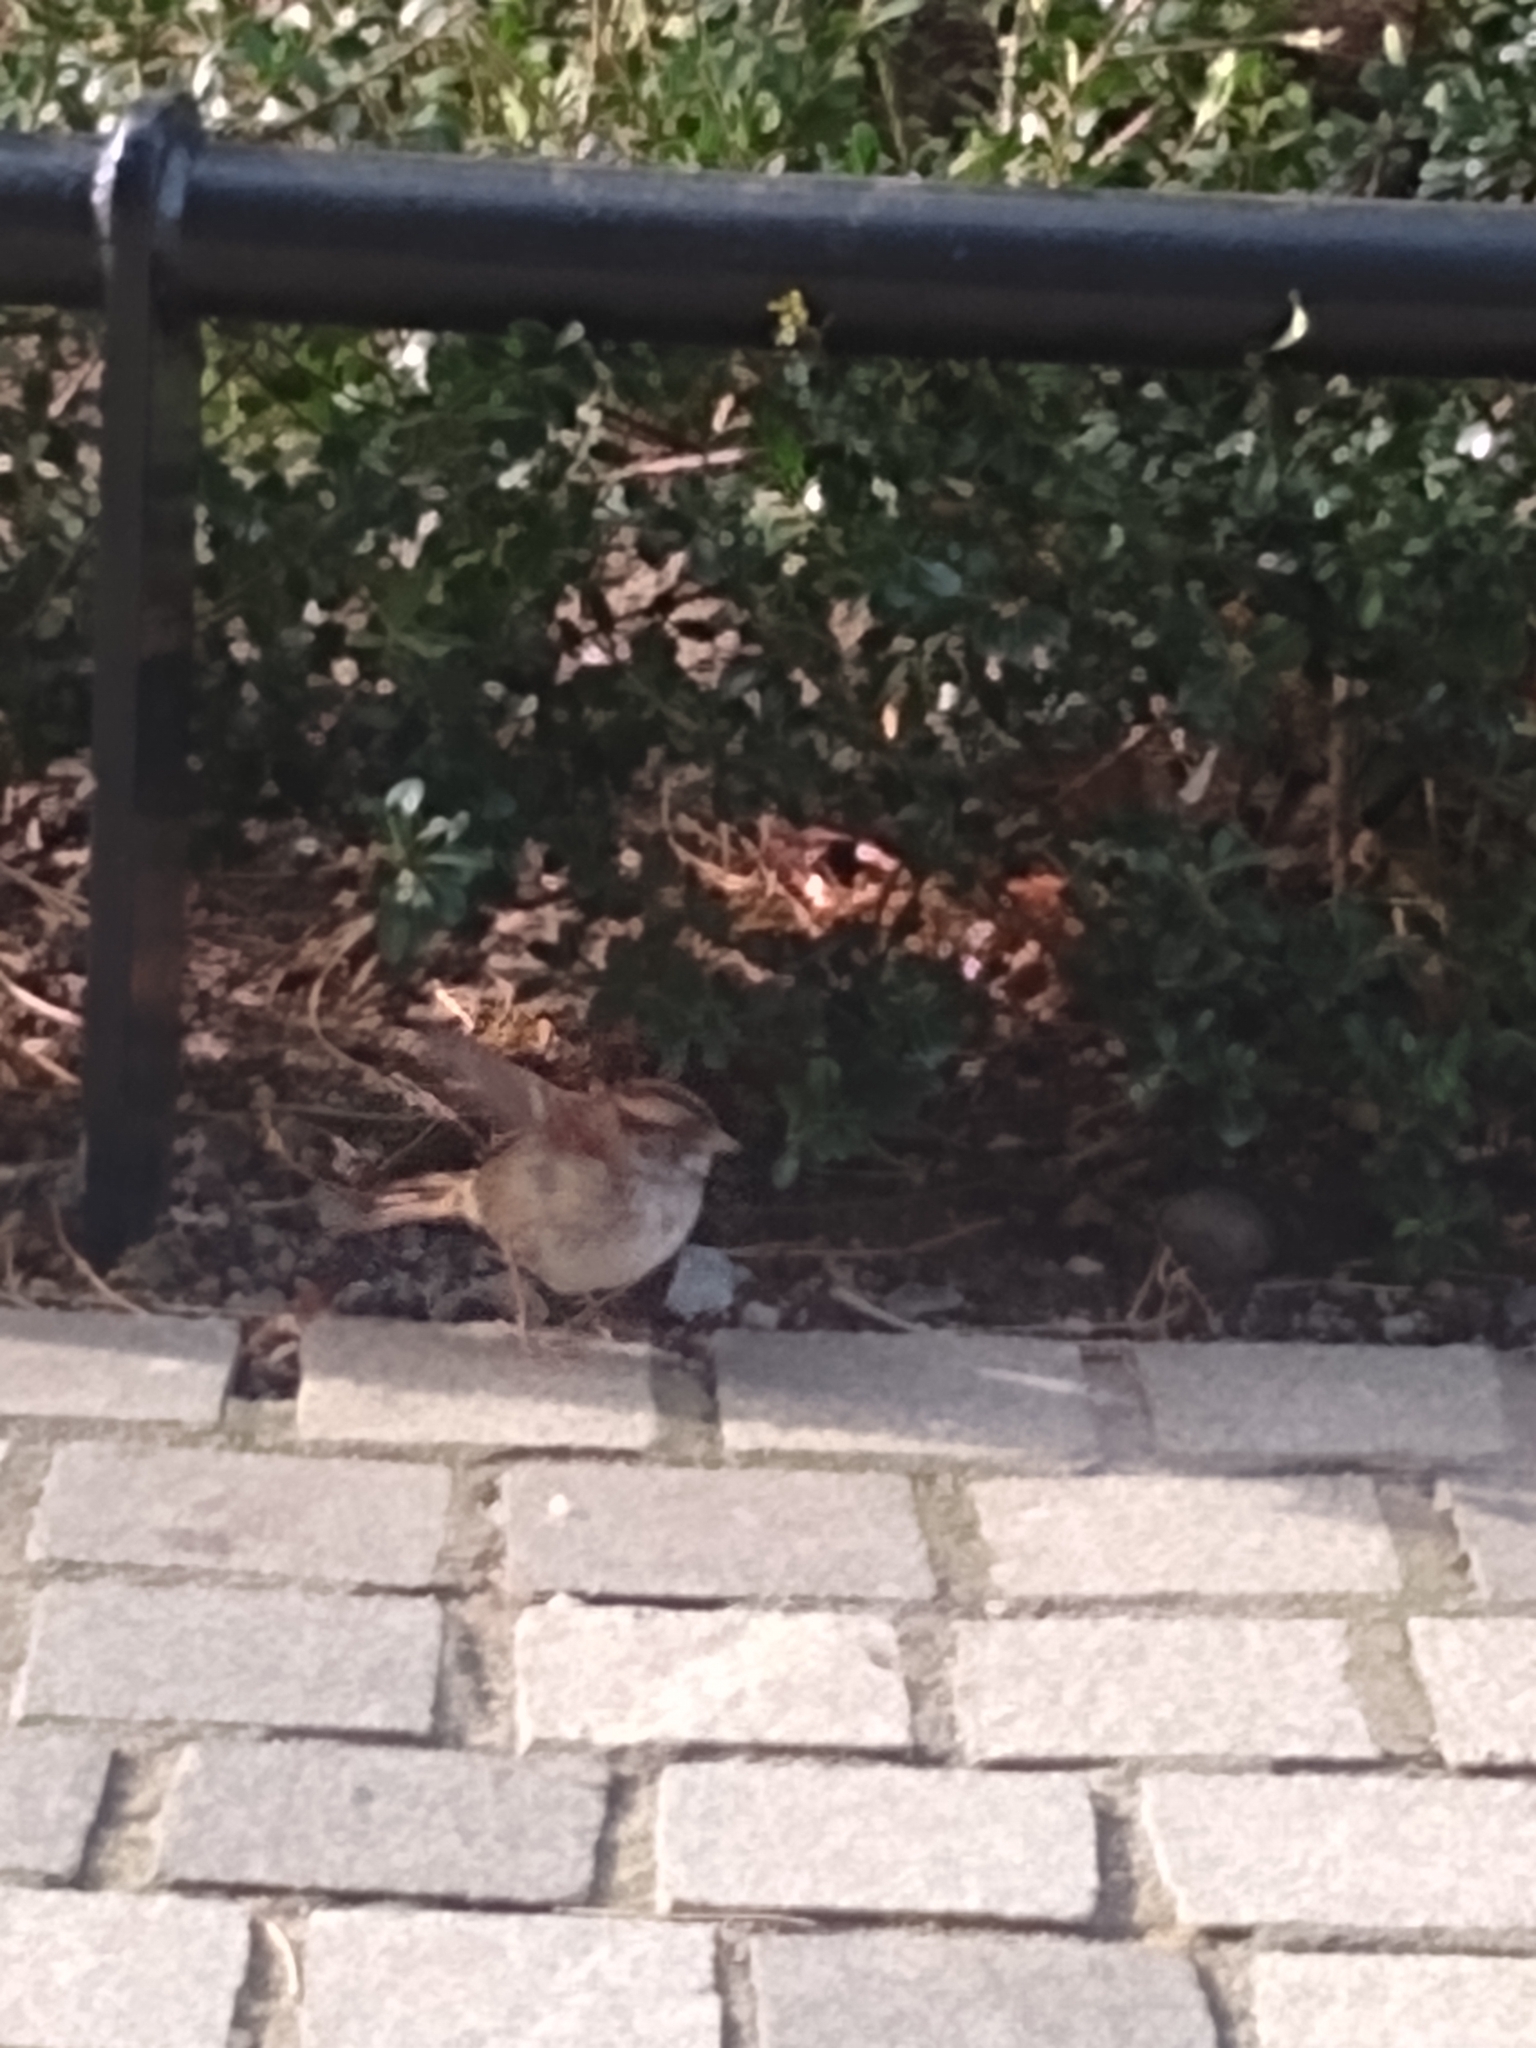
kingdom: Animalia
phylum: Chordata
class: Aves
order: Passeriformes
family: Passerellidae
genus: Zonotrichia
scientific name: Zonotrichia albicollis
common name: White-throated sparrow
